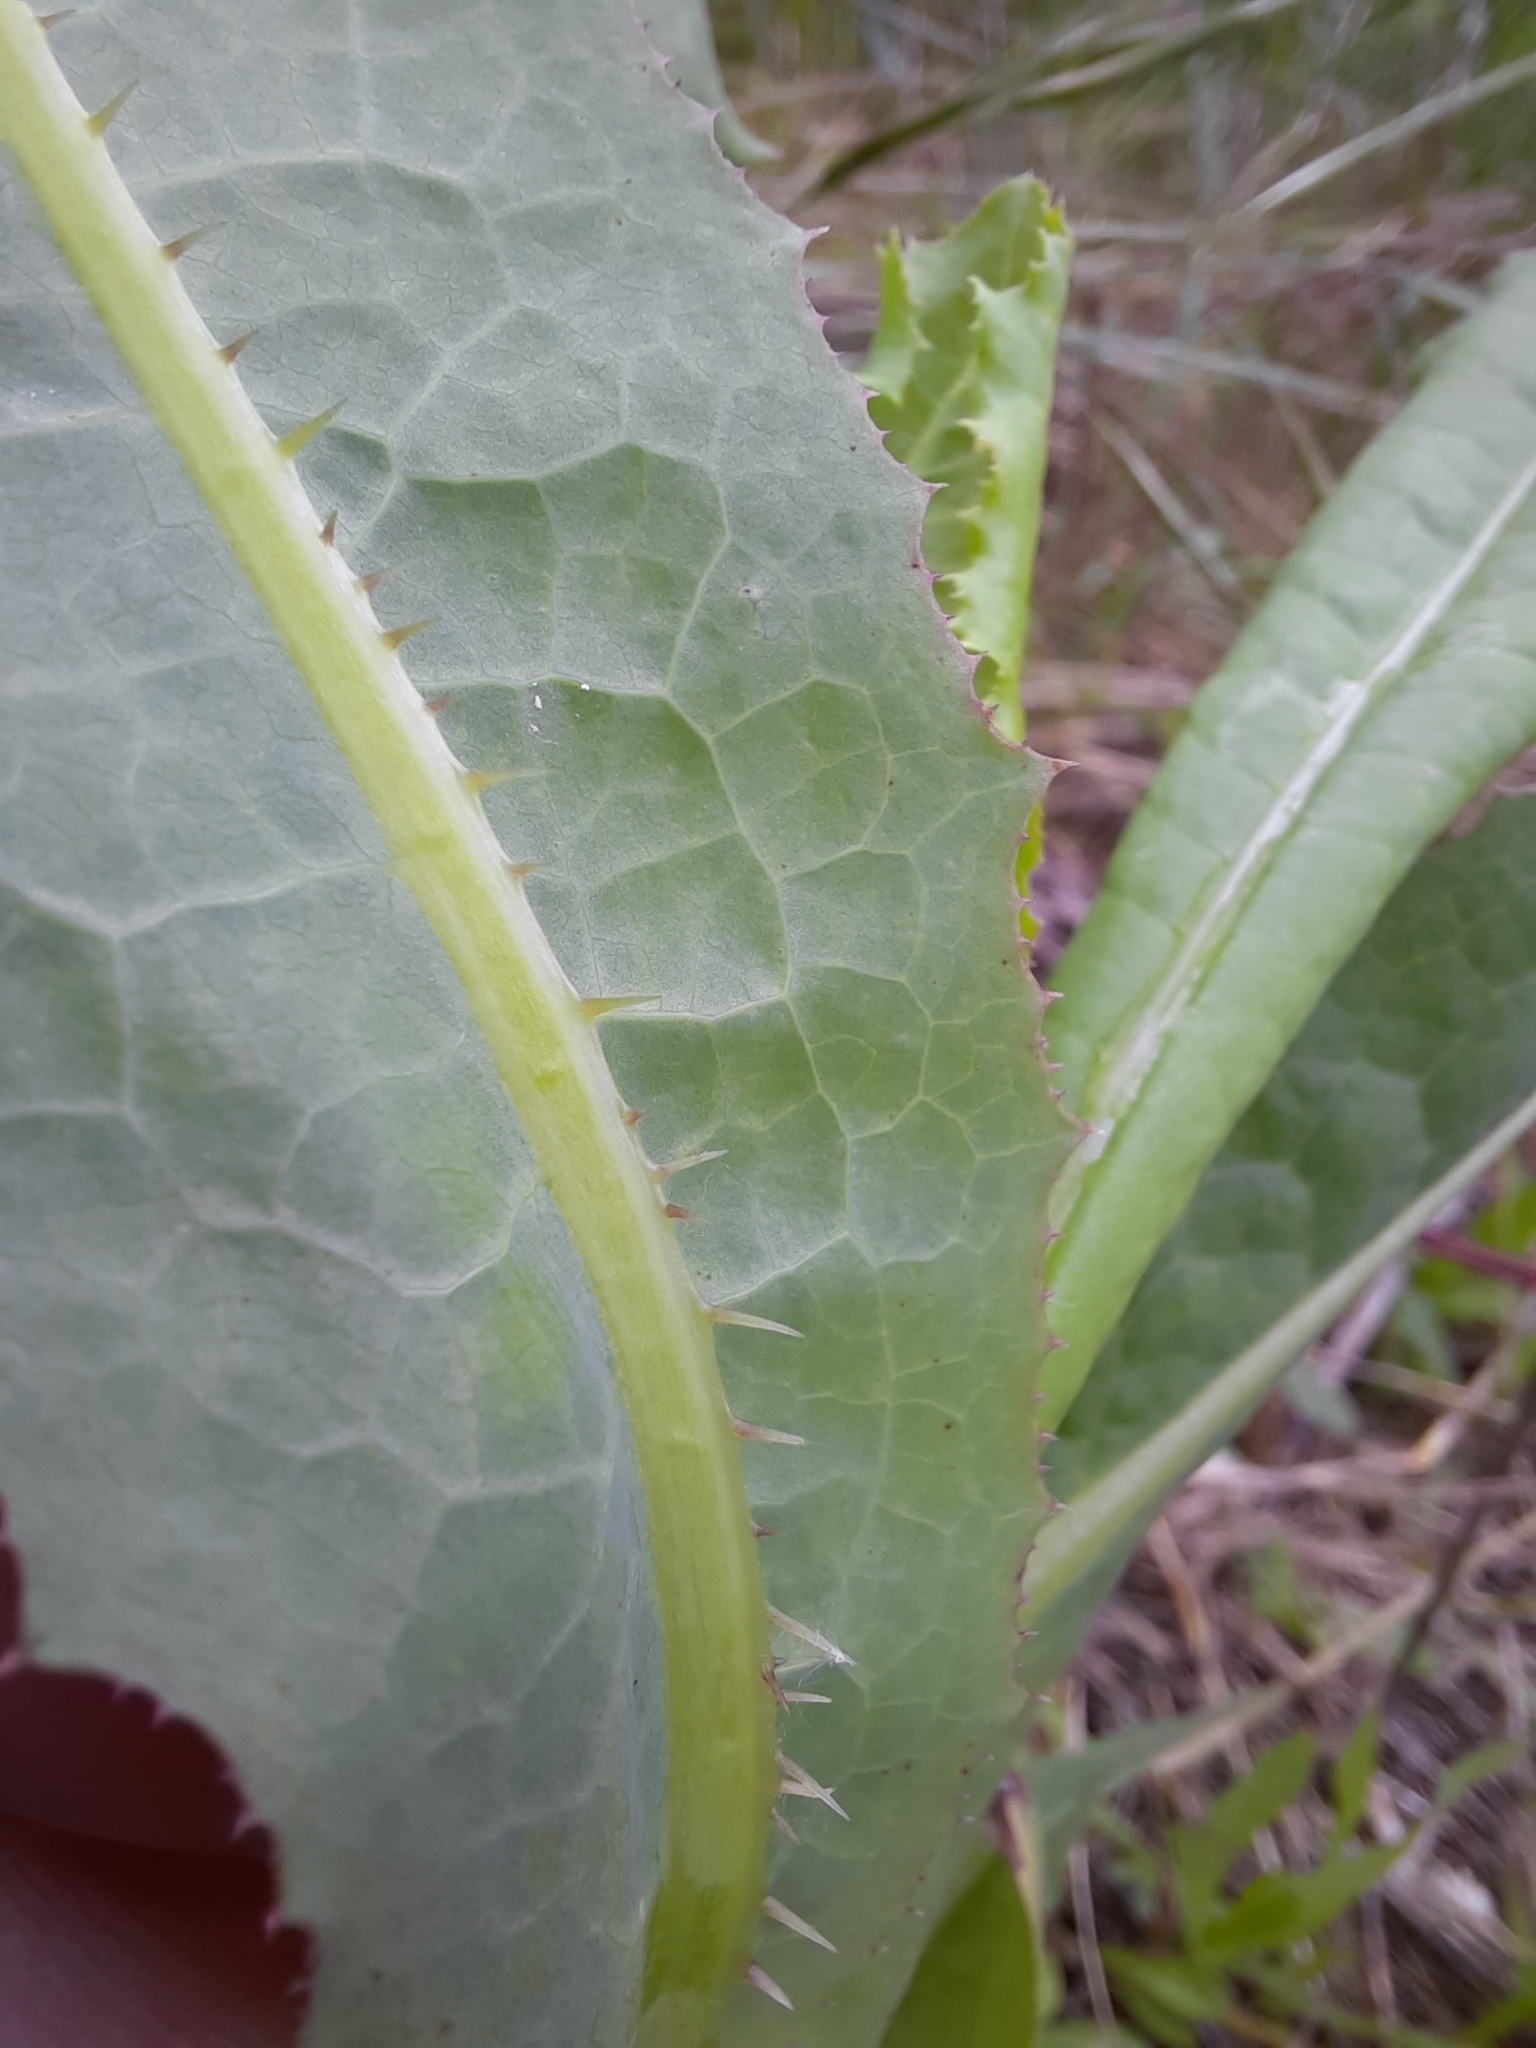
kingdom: Plantae
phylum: Tracheophyta
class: Magnoliopsida
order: Asterales
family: Asteraceae
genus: Lactuca
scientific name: Lactuca serriola
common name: Prickly lettuce
